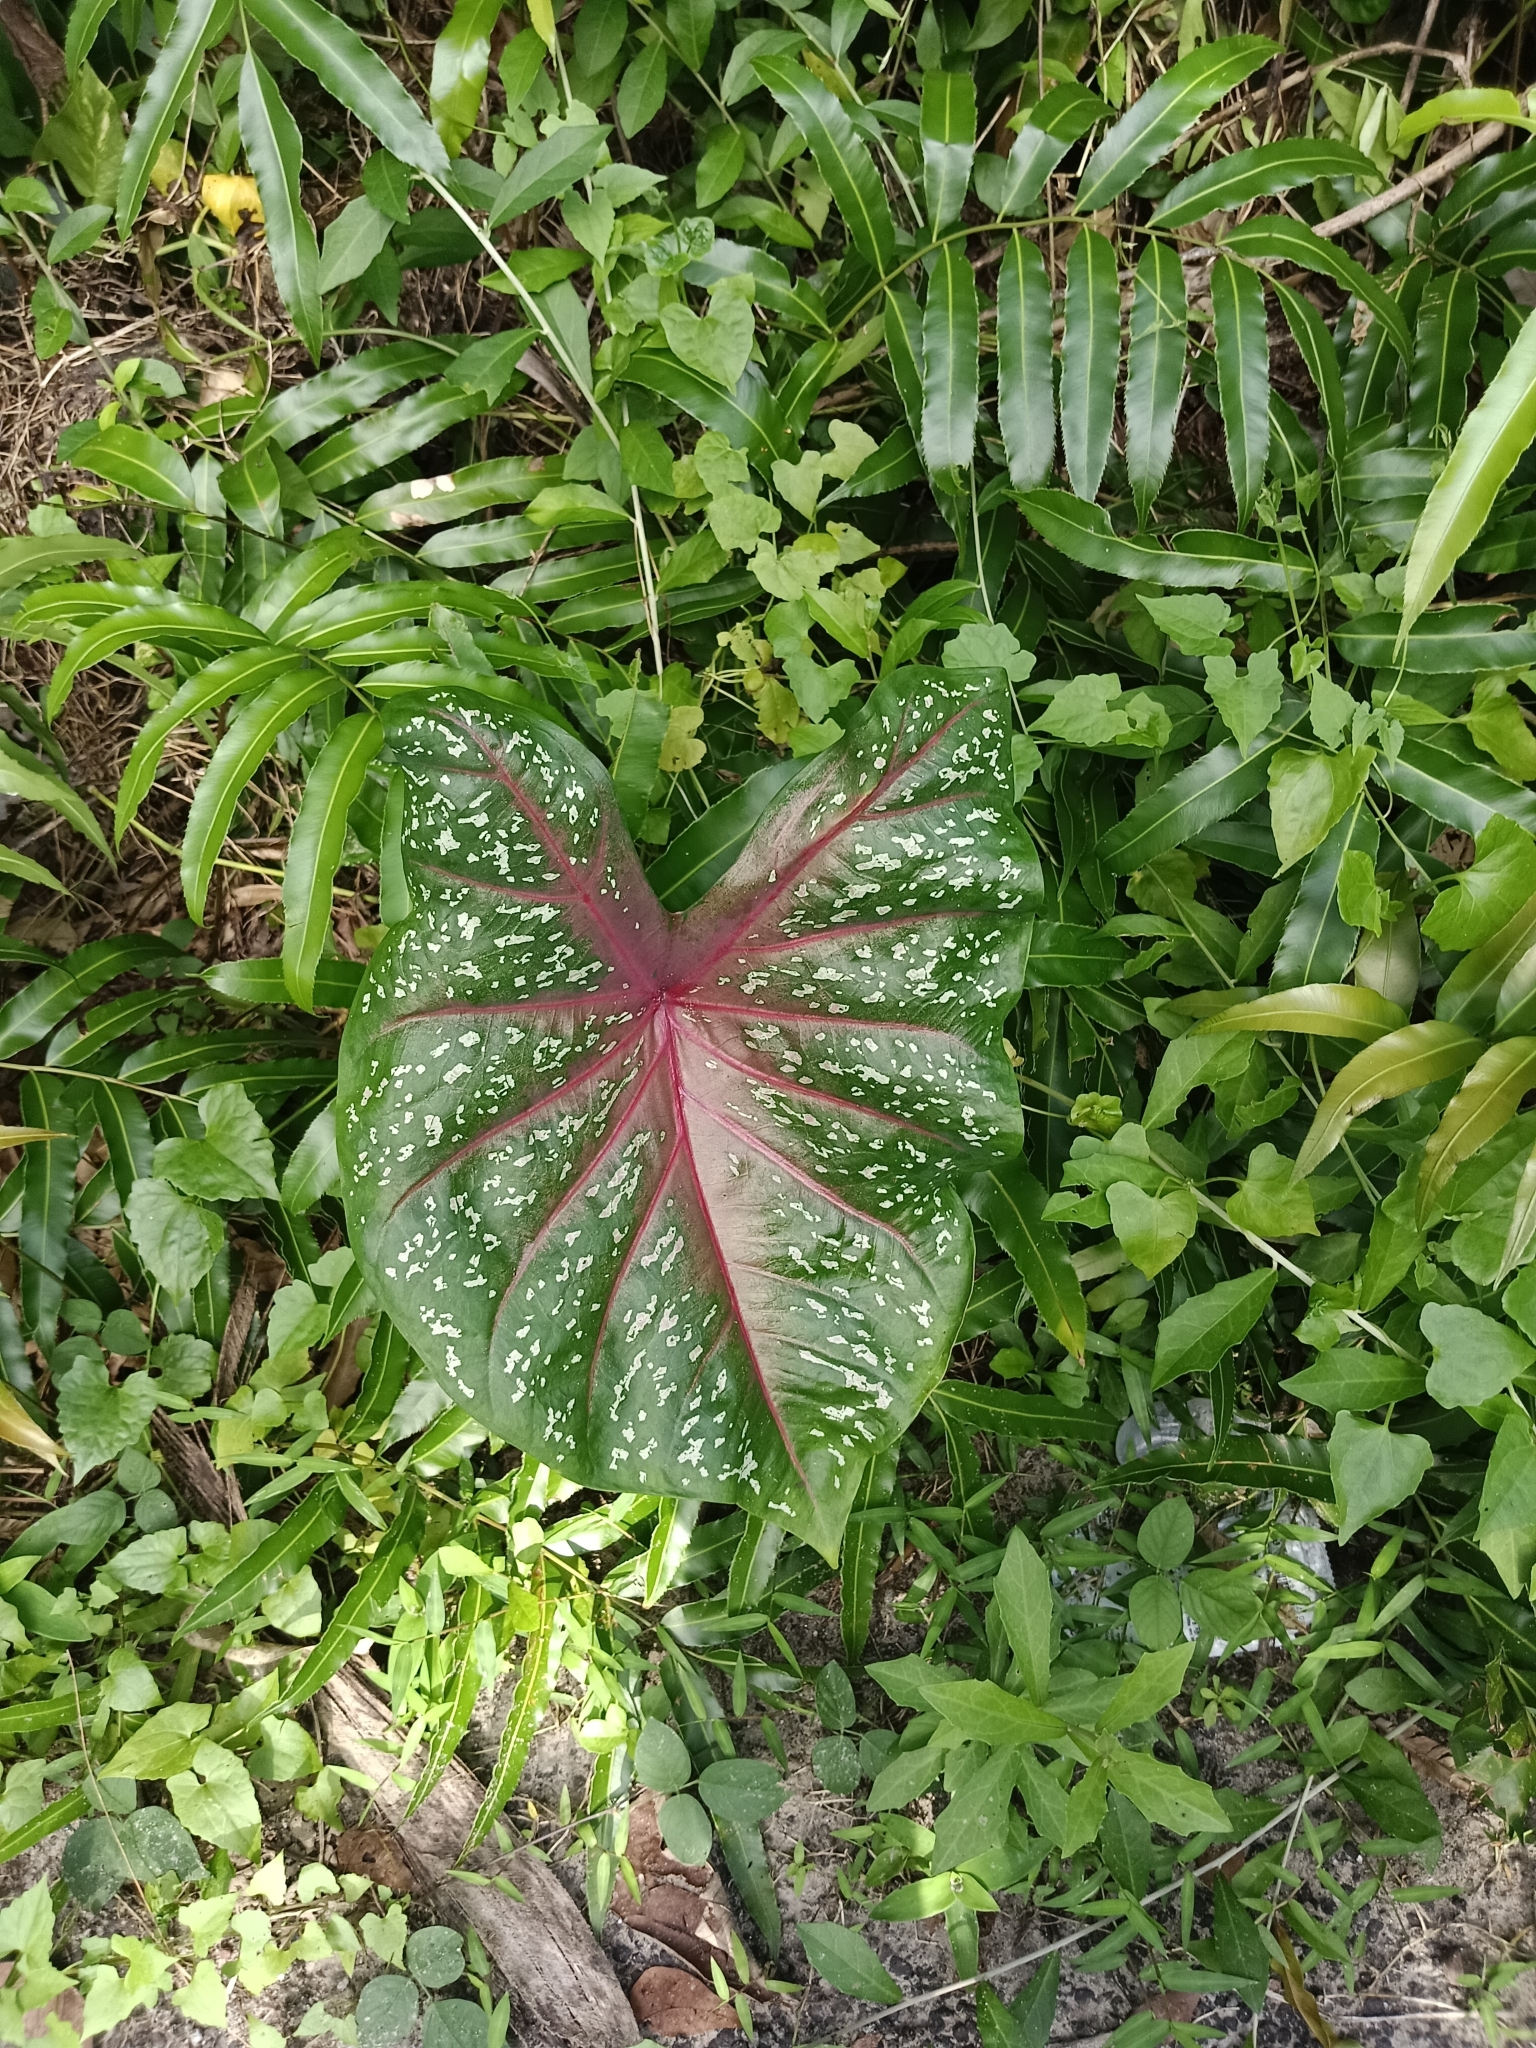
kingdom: Plantae
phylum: Tracheophyta
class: Liliopsida
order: Alismatales
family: Araceae
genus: Caladium
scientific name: Caladium bicolor
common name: Artist's pallet
